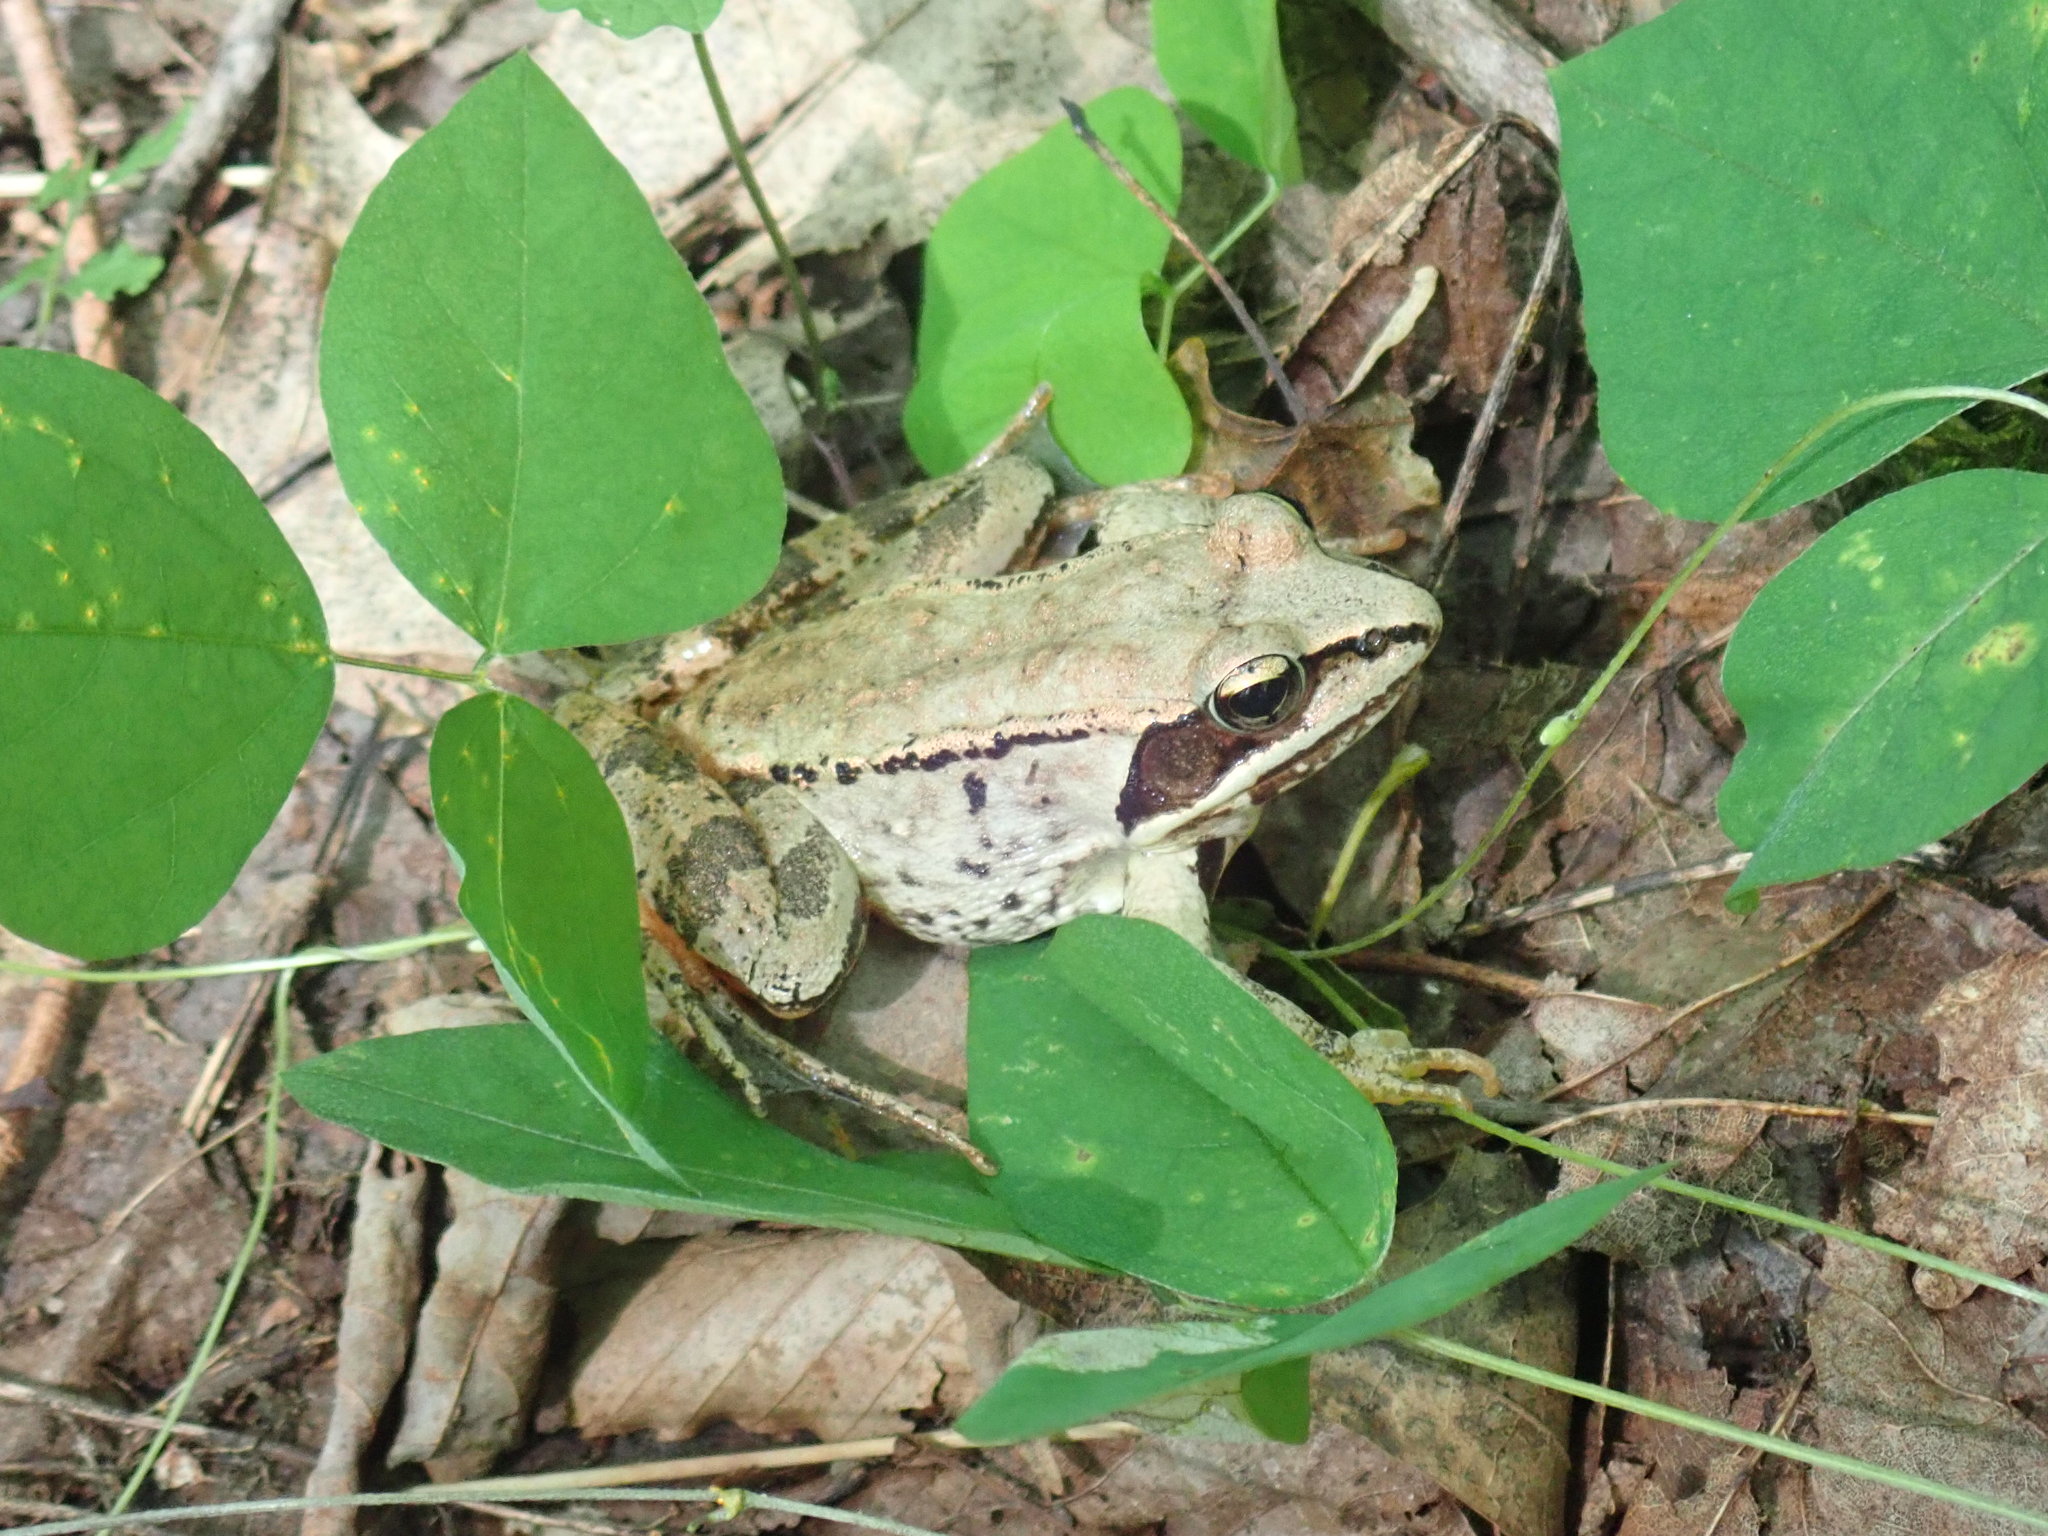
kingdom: Animalia
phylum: Chordata
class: Amphibia
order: Anura
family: Ranidae
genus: Lithobates
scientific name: Lithobates sylvaticus
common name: Wood frog
